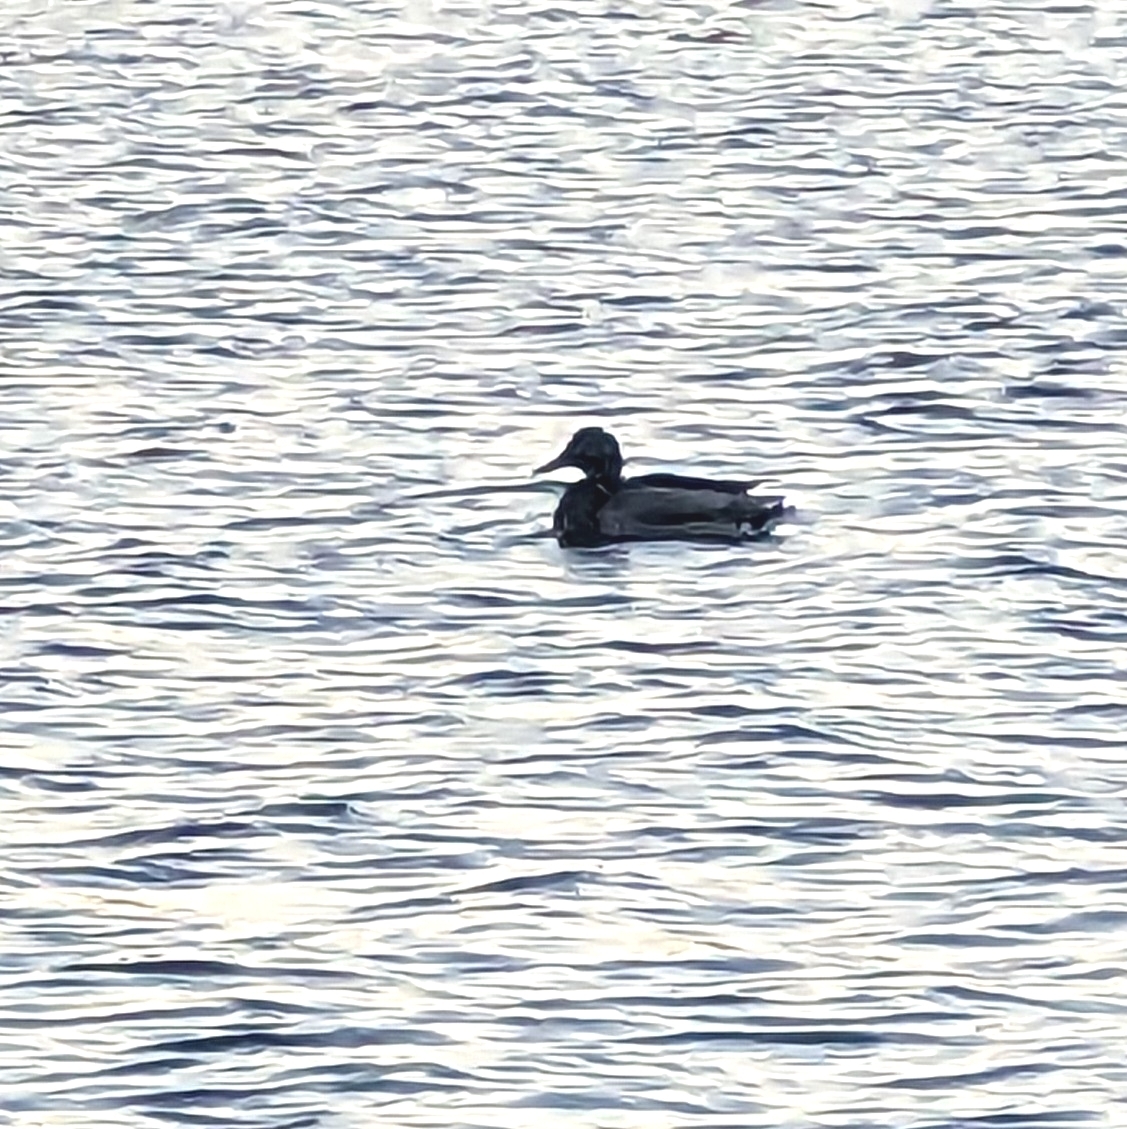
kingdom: Animalia
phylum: Chordata
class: Aves
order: Anseriformes
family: Anatidae
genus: Anas
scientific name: Anas platyrhynchos
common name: Mallard
